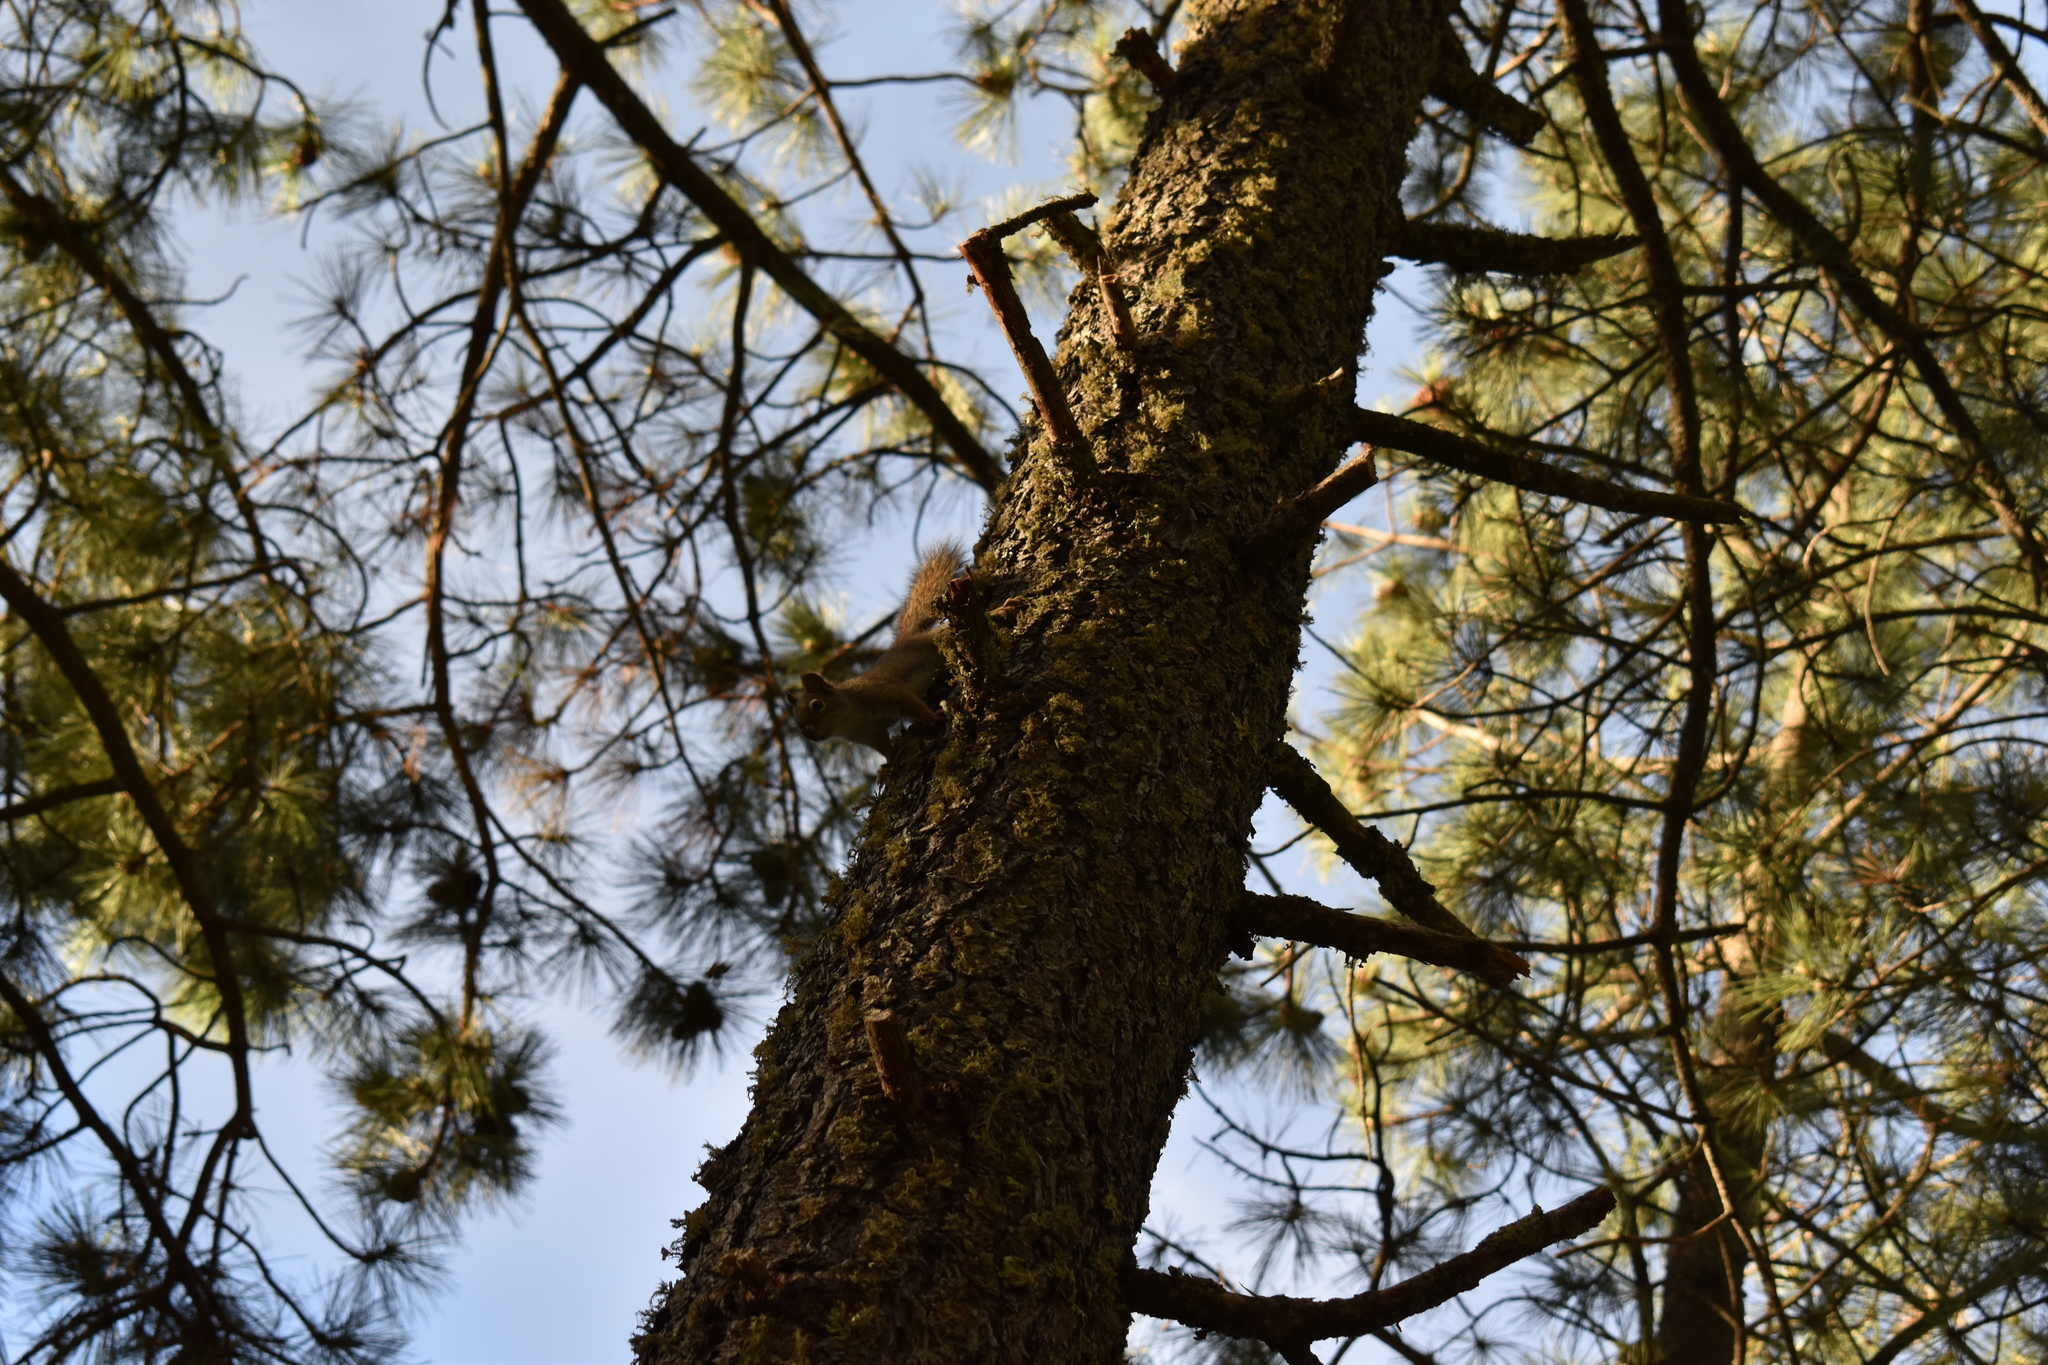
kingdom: Animalia
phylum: Chordata
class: Mammalia
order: Rodentia
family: Sciuridae
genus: Tamiasciurus
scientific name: Tamiasciurus hudsonicus
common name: Red squirrel
